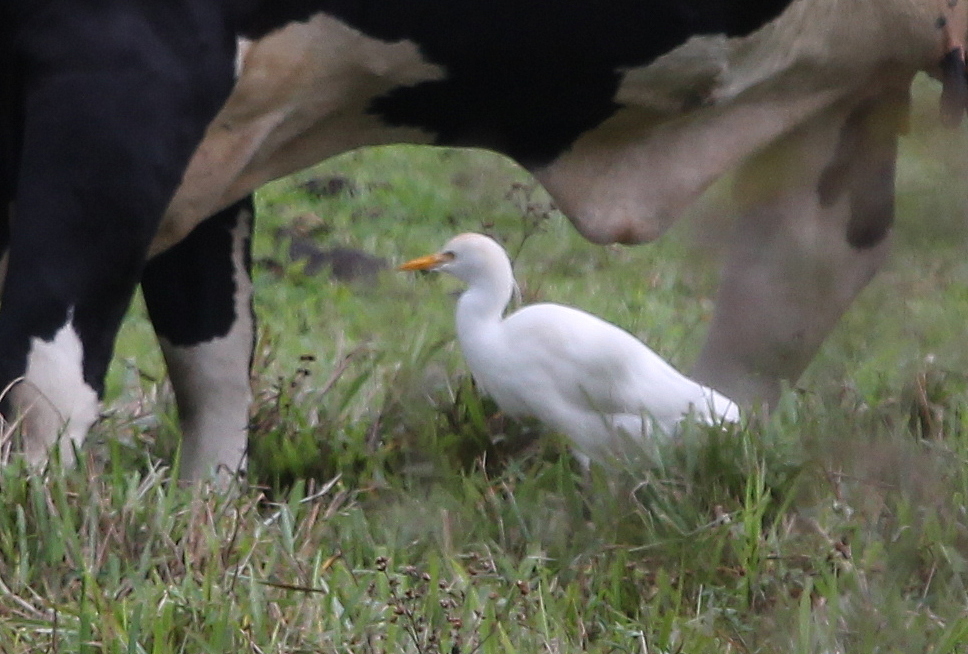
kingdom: Animalia
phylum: Chordata
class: Aves
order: Pelecaniformes
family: Ardeidae
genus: Bubulcus
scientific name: Bubulcus ibis
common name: Cattle egret
